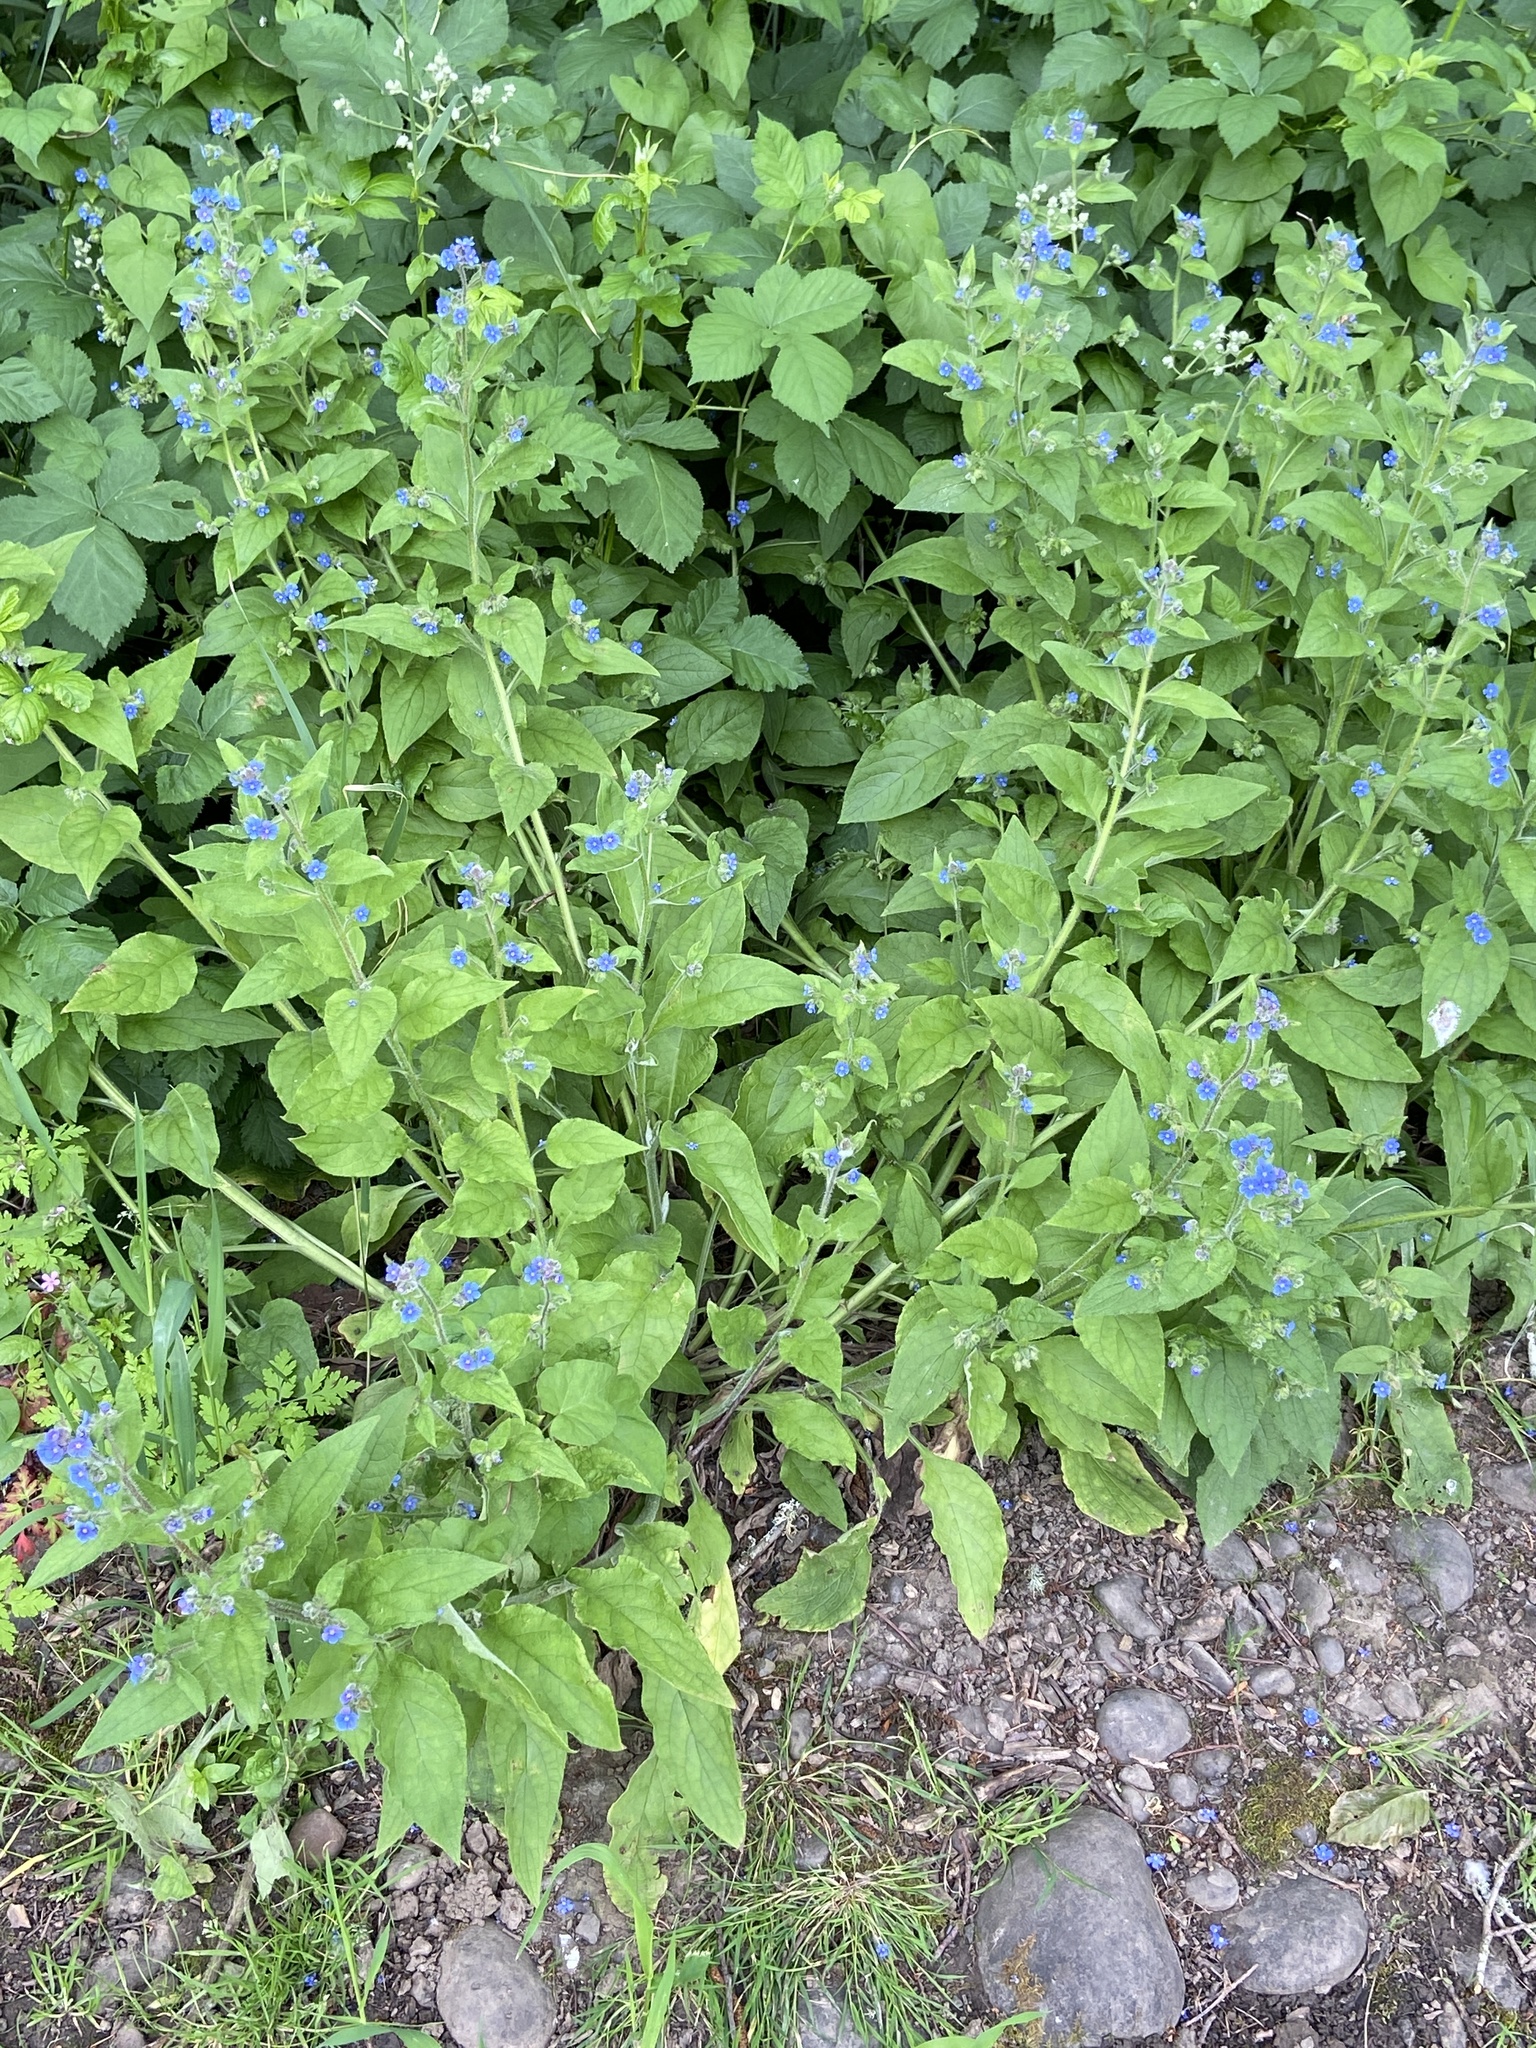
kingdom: Plantae
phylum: Tracheophyta
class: Magnoliopsida
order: Boraginales
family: Boraginaceae
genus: Pentaglottis
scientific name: Pentaglottis sempervirens
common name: Green alkanet
